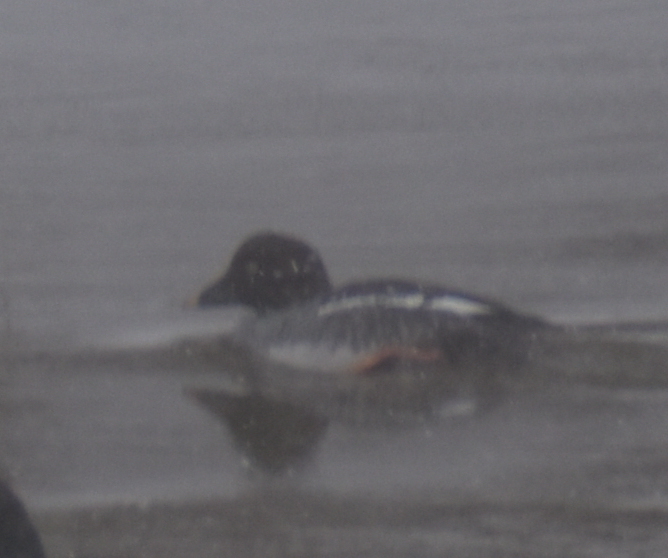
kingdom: Animalia
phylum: Chordata
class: Aves
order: Anseriformes
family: Anatidae
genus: Bucephala
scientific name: Bucephala clangula
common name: Common goldeneye
